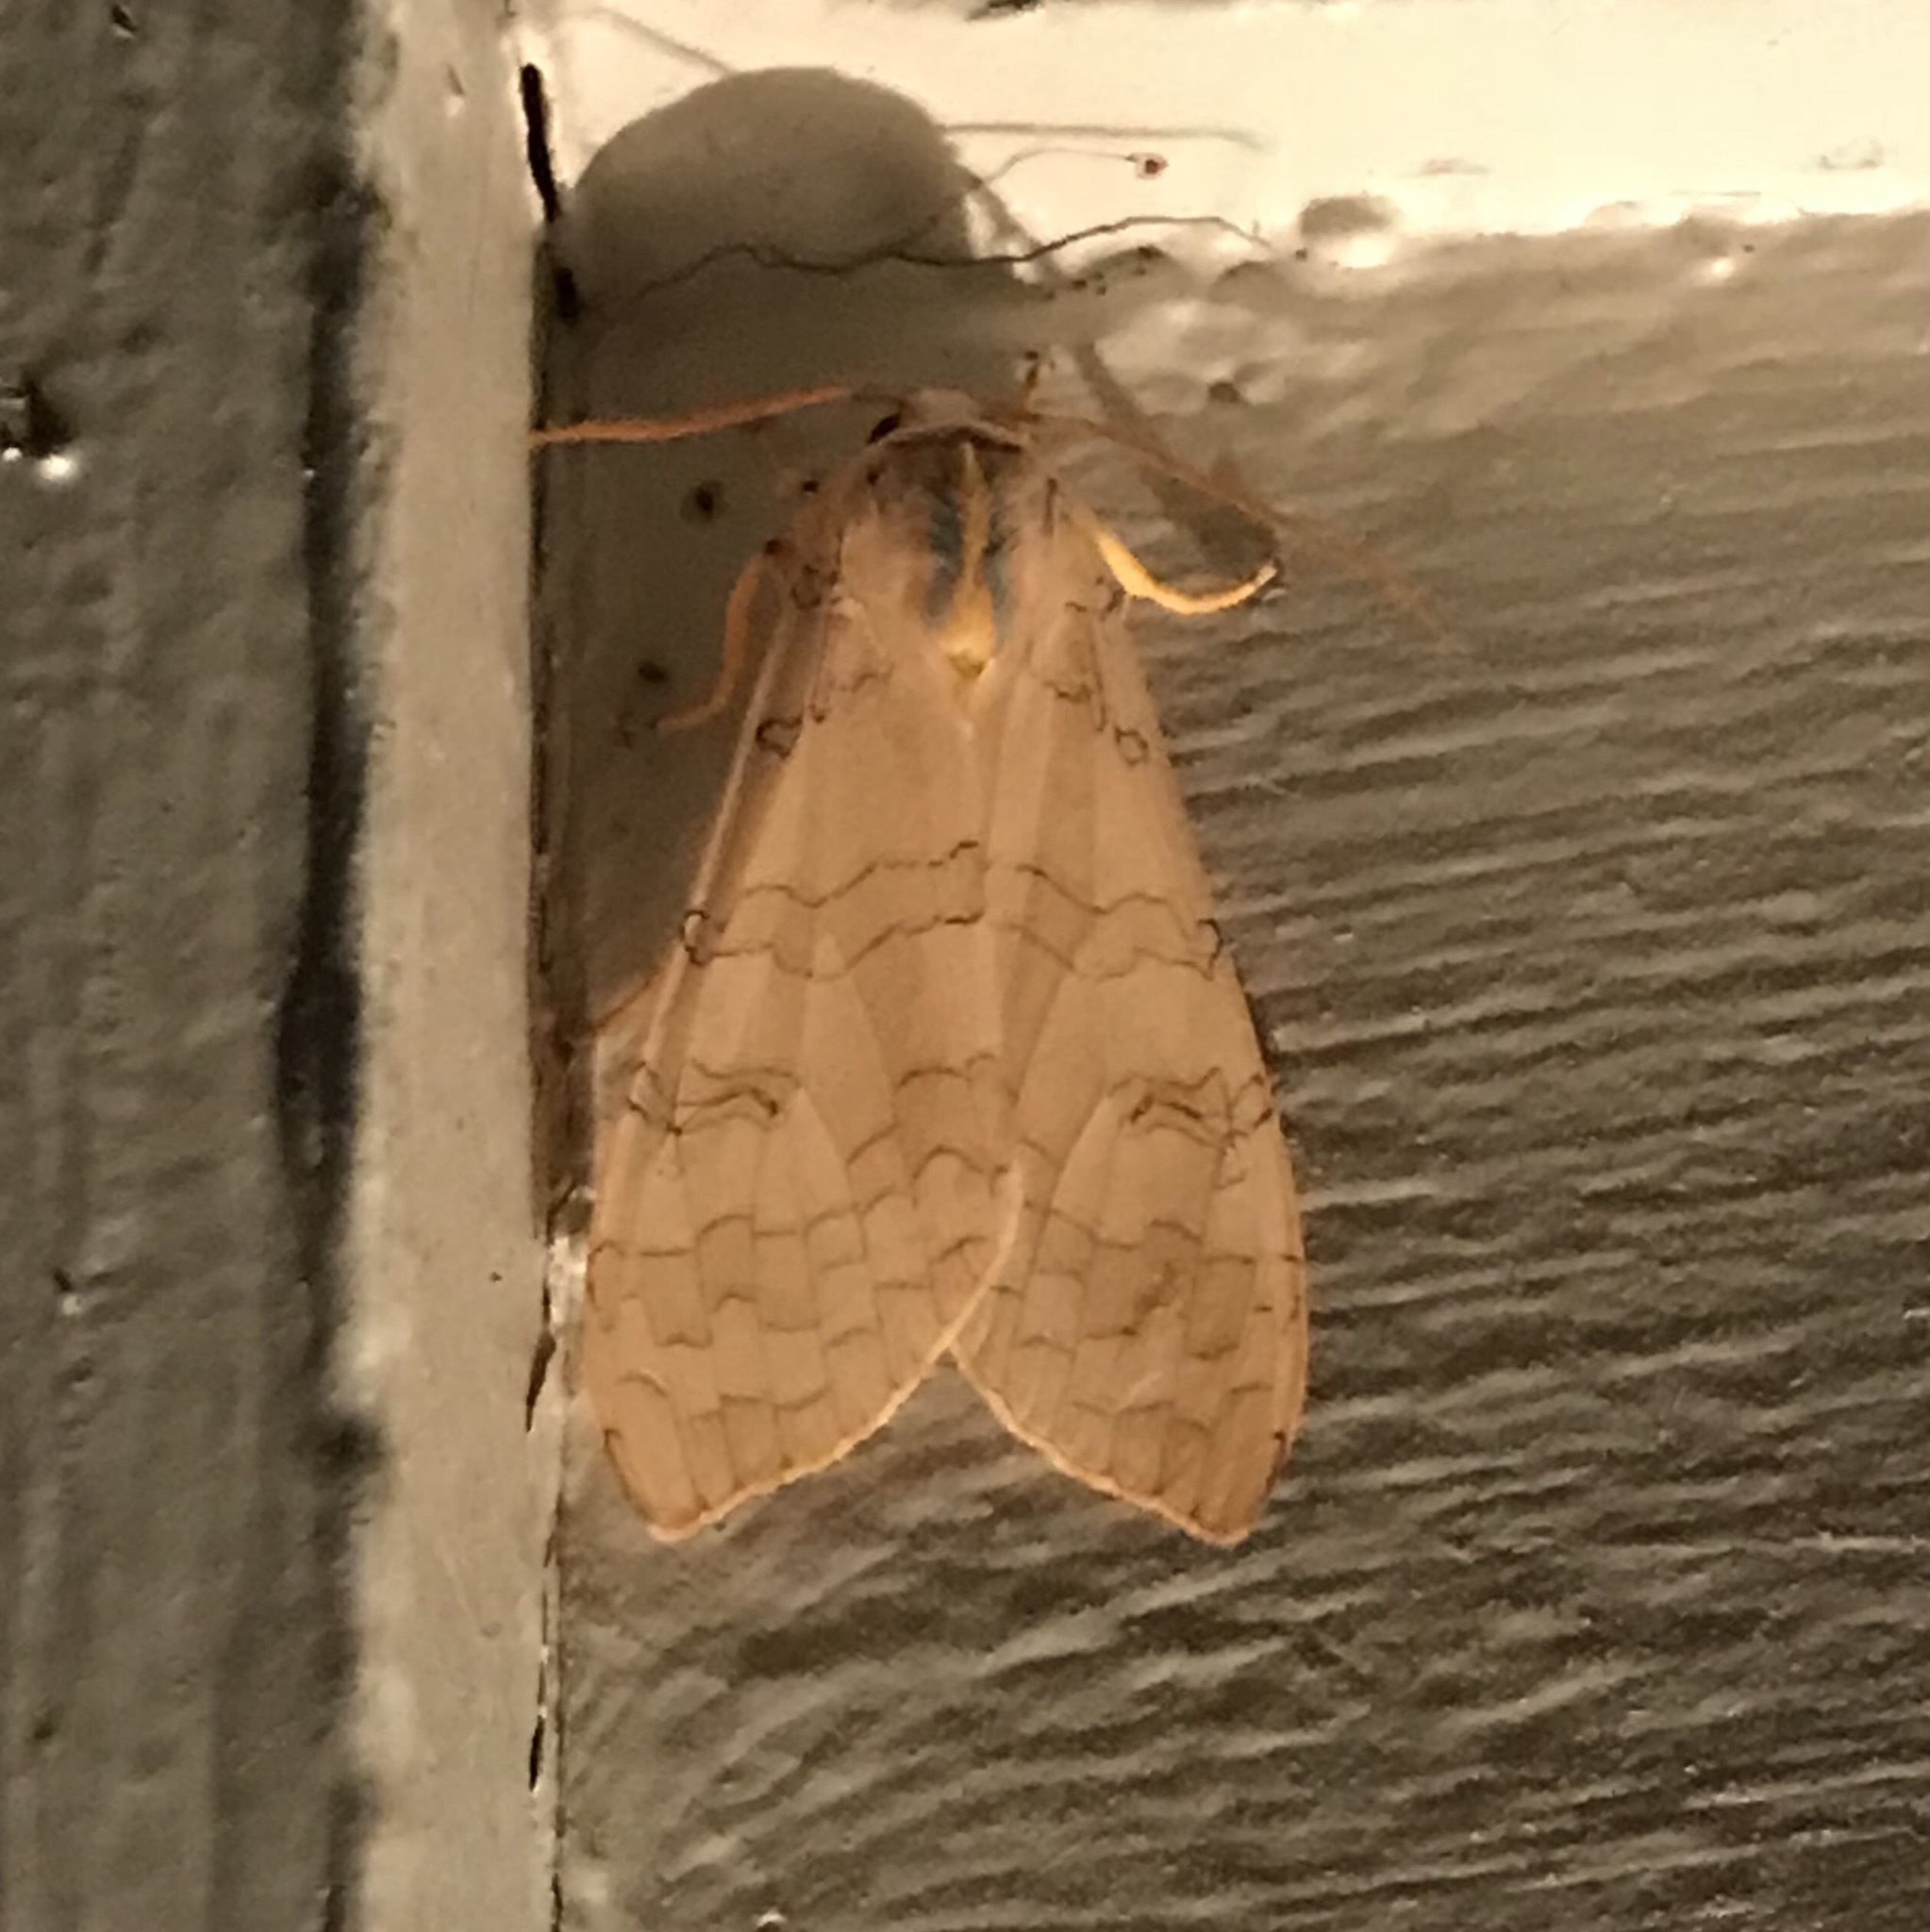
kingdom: Animalia
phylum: Arthropoda
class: Insecta
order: Lepidoptera
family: Erebidae
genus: Halysidota
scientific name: Halysidota
